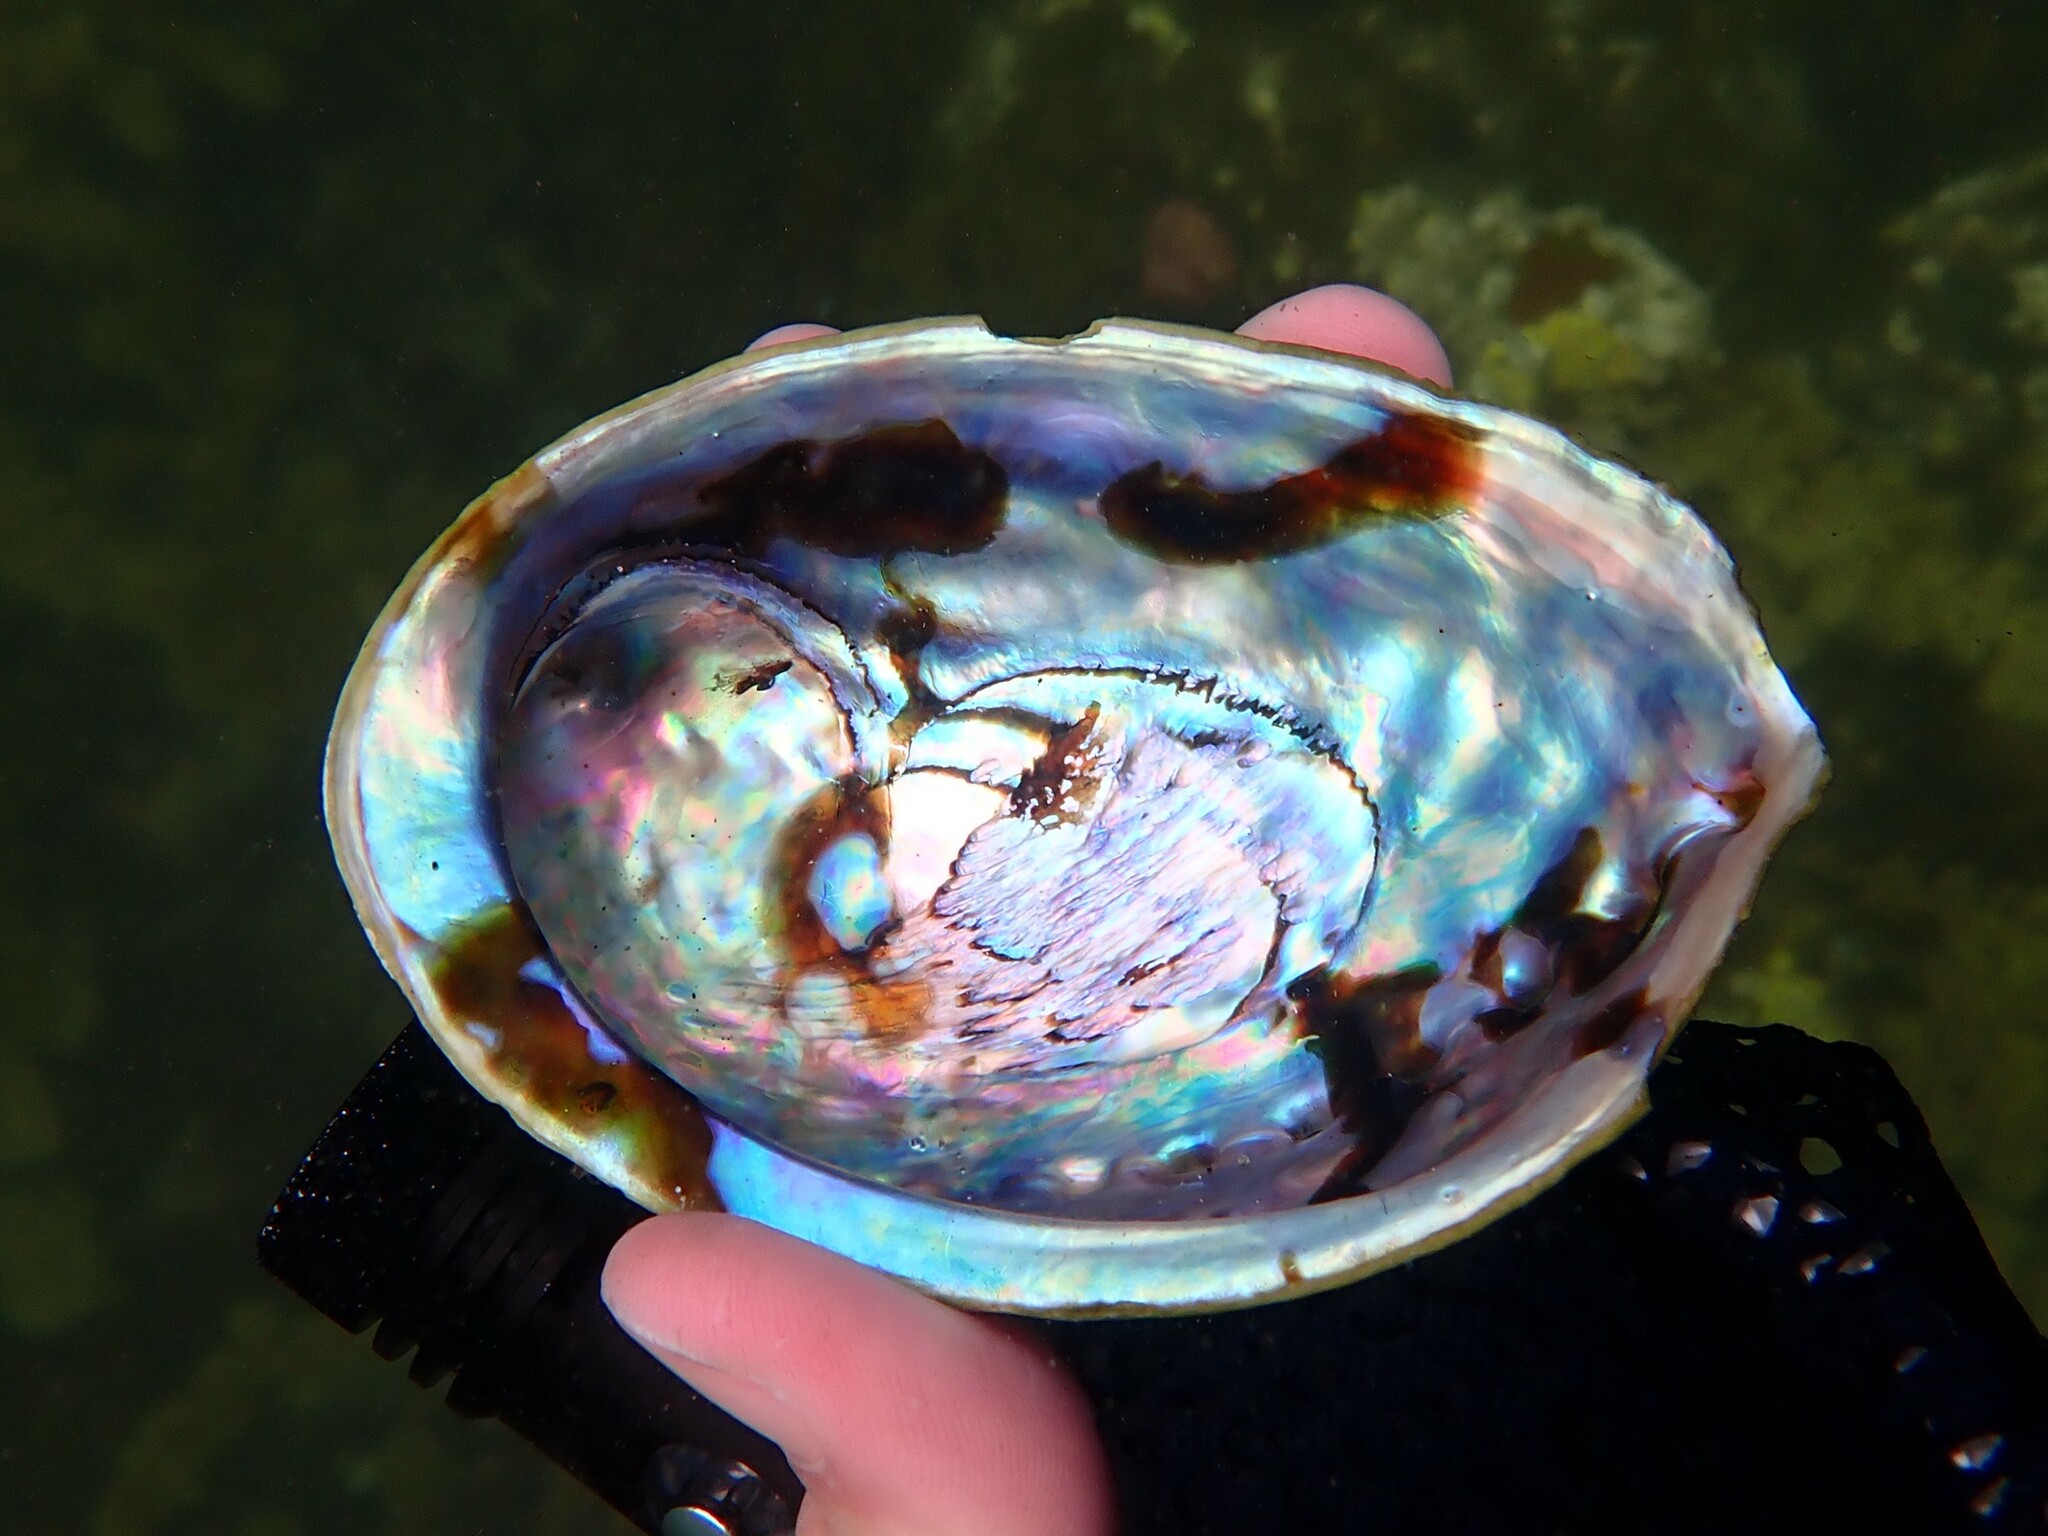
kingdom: Animalia
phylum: Mollusca
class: Gastropoda
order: Lepetellida
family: Haliotidae
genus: Haliotis
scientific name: Haliotis iris
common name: Abalone
